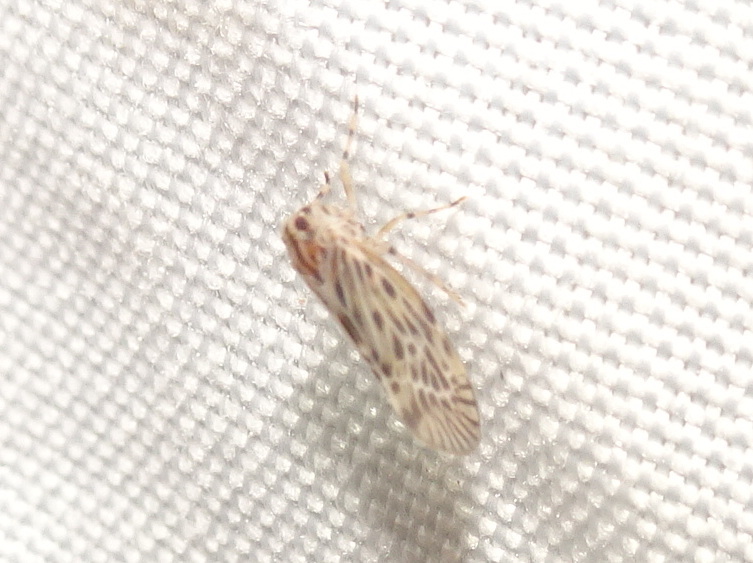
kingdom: Animalia
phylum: Arthropoda
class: Insecta
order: Hemiptera
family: Derbidae
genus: Cedusa
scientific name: Cedusa maculata
